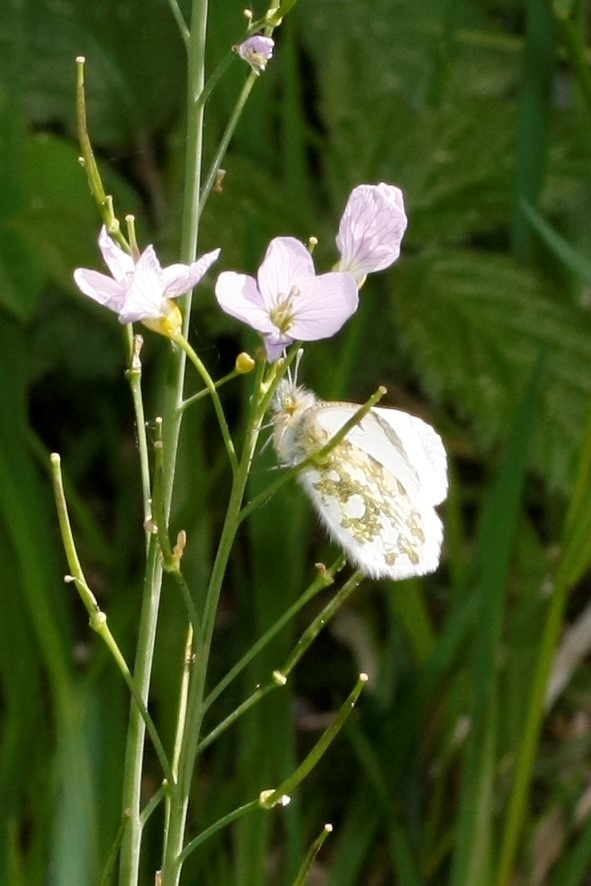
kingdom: Animalia
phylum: Arthropoda
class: Insecta
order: Lepidoptera
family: Pieridae
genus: Anthocharis
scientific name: Anthocharis cardamines
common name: Orange-tip
